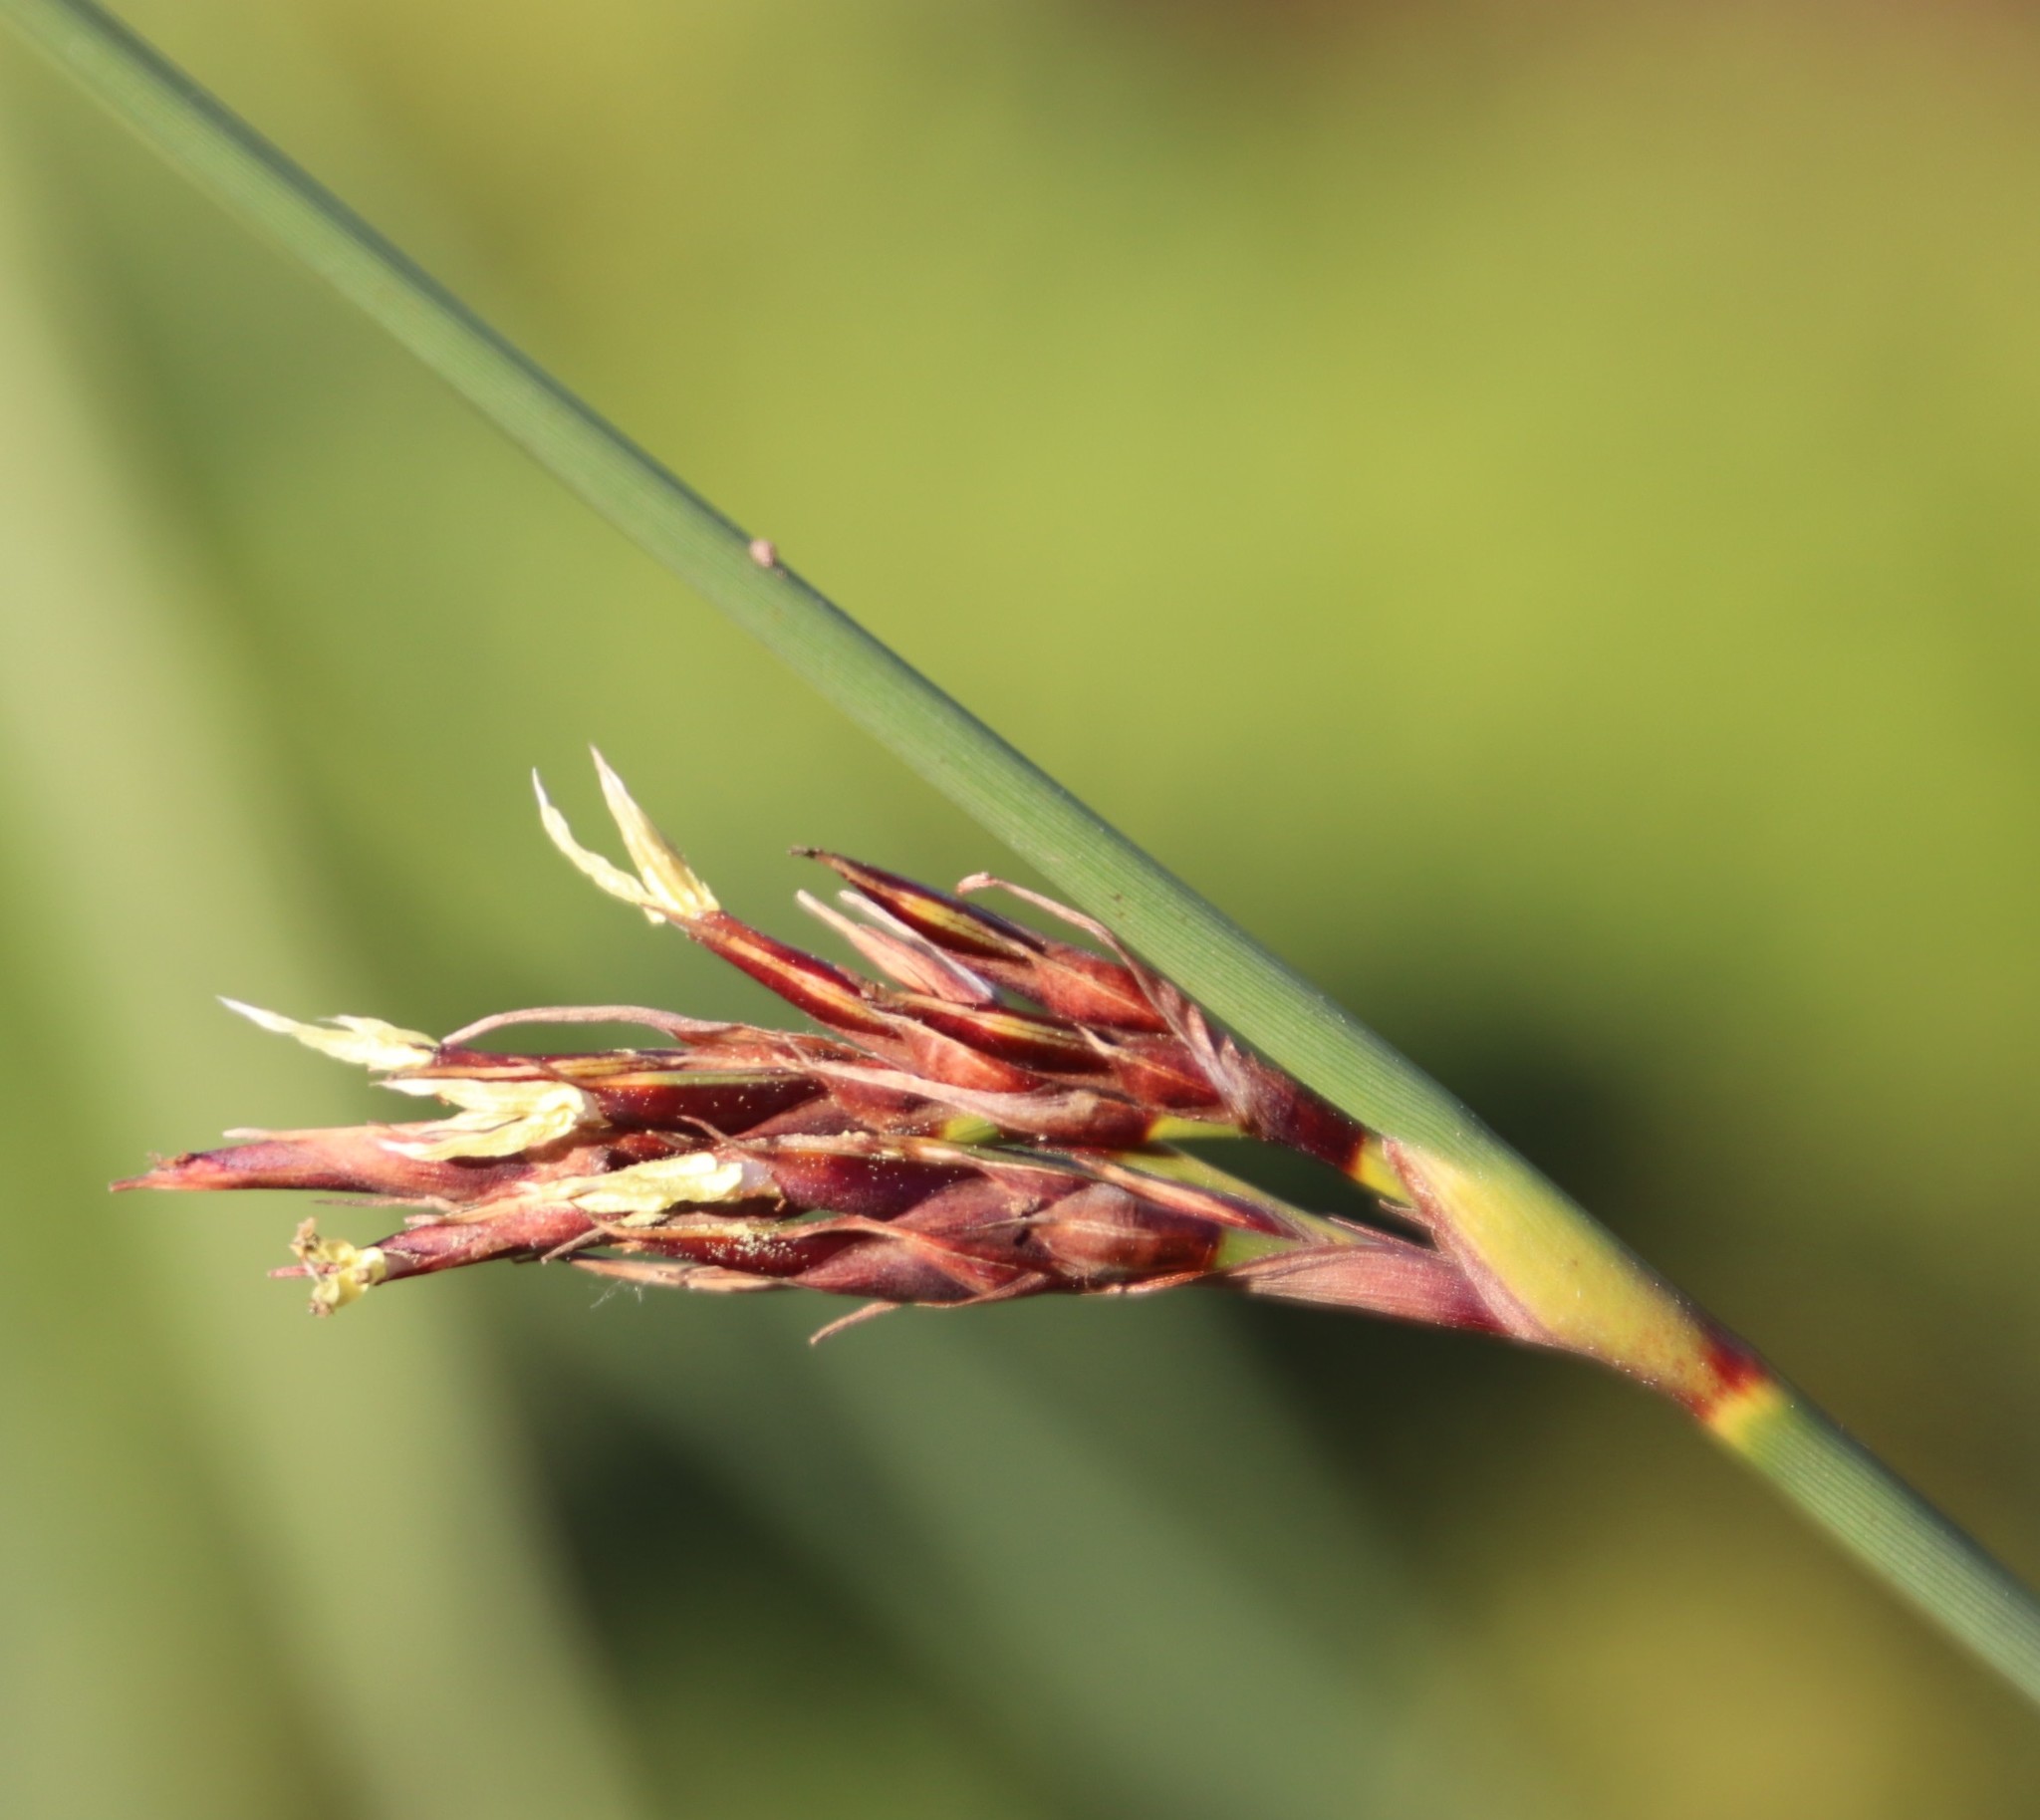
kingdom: Plantae
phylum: Tracheophyta
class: Liliopsida
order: Poales
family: Cyperaceae
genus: Neesenbeckia
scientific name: Neesenbeckia punctoria
